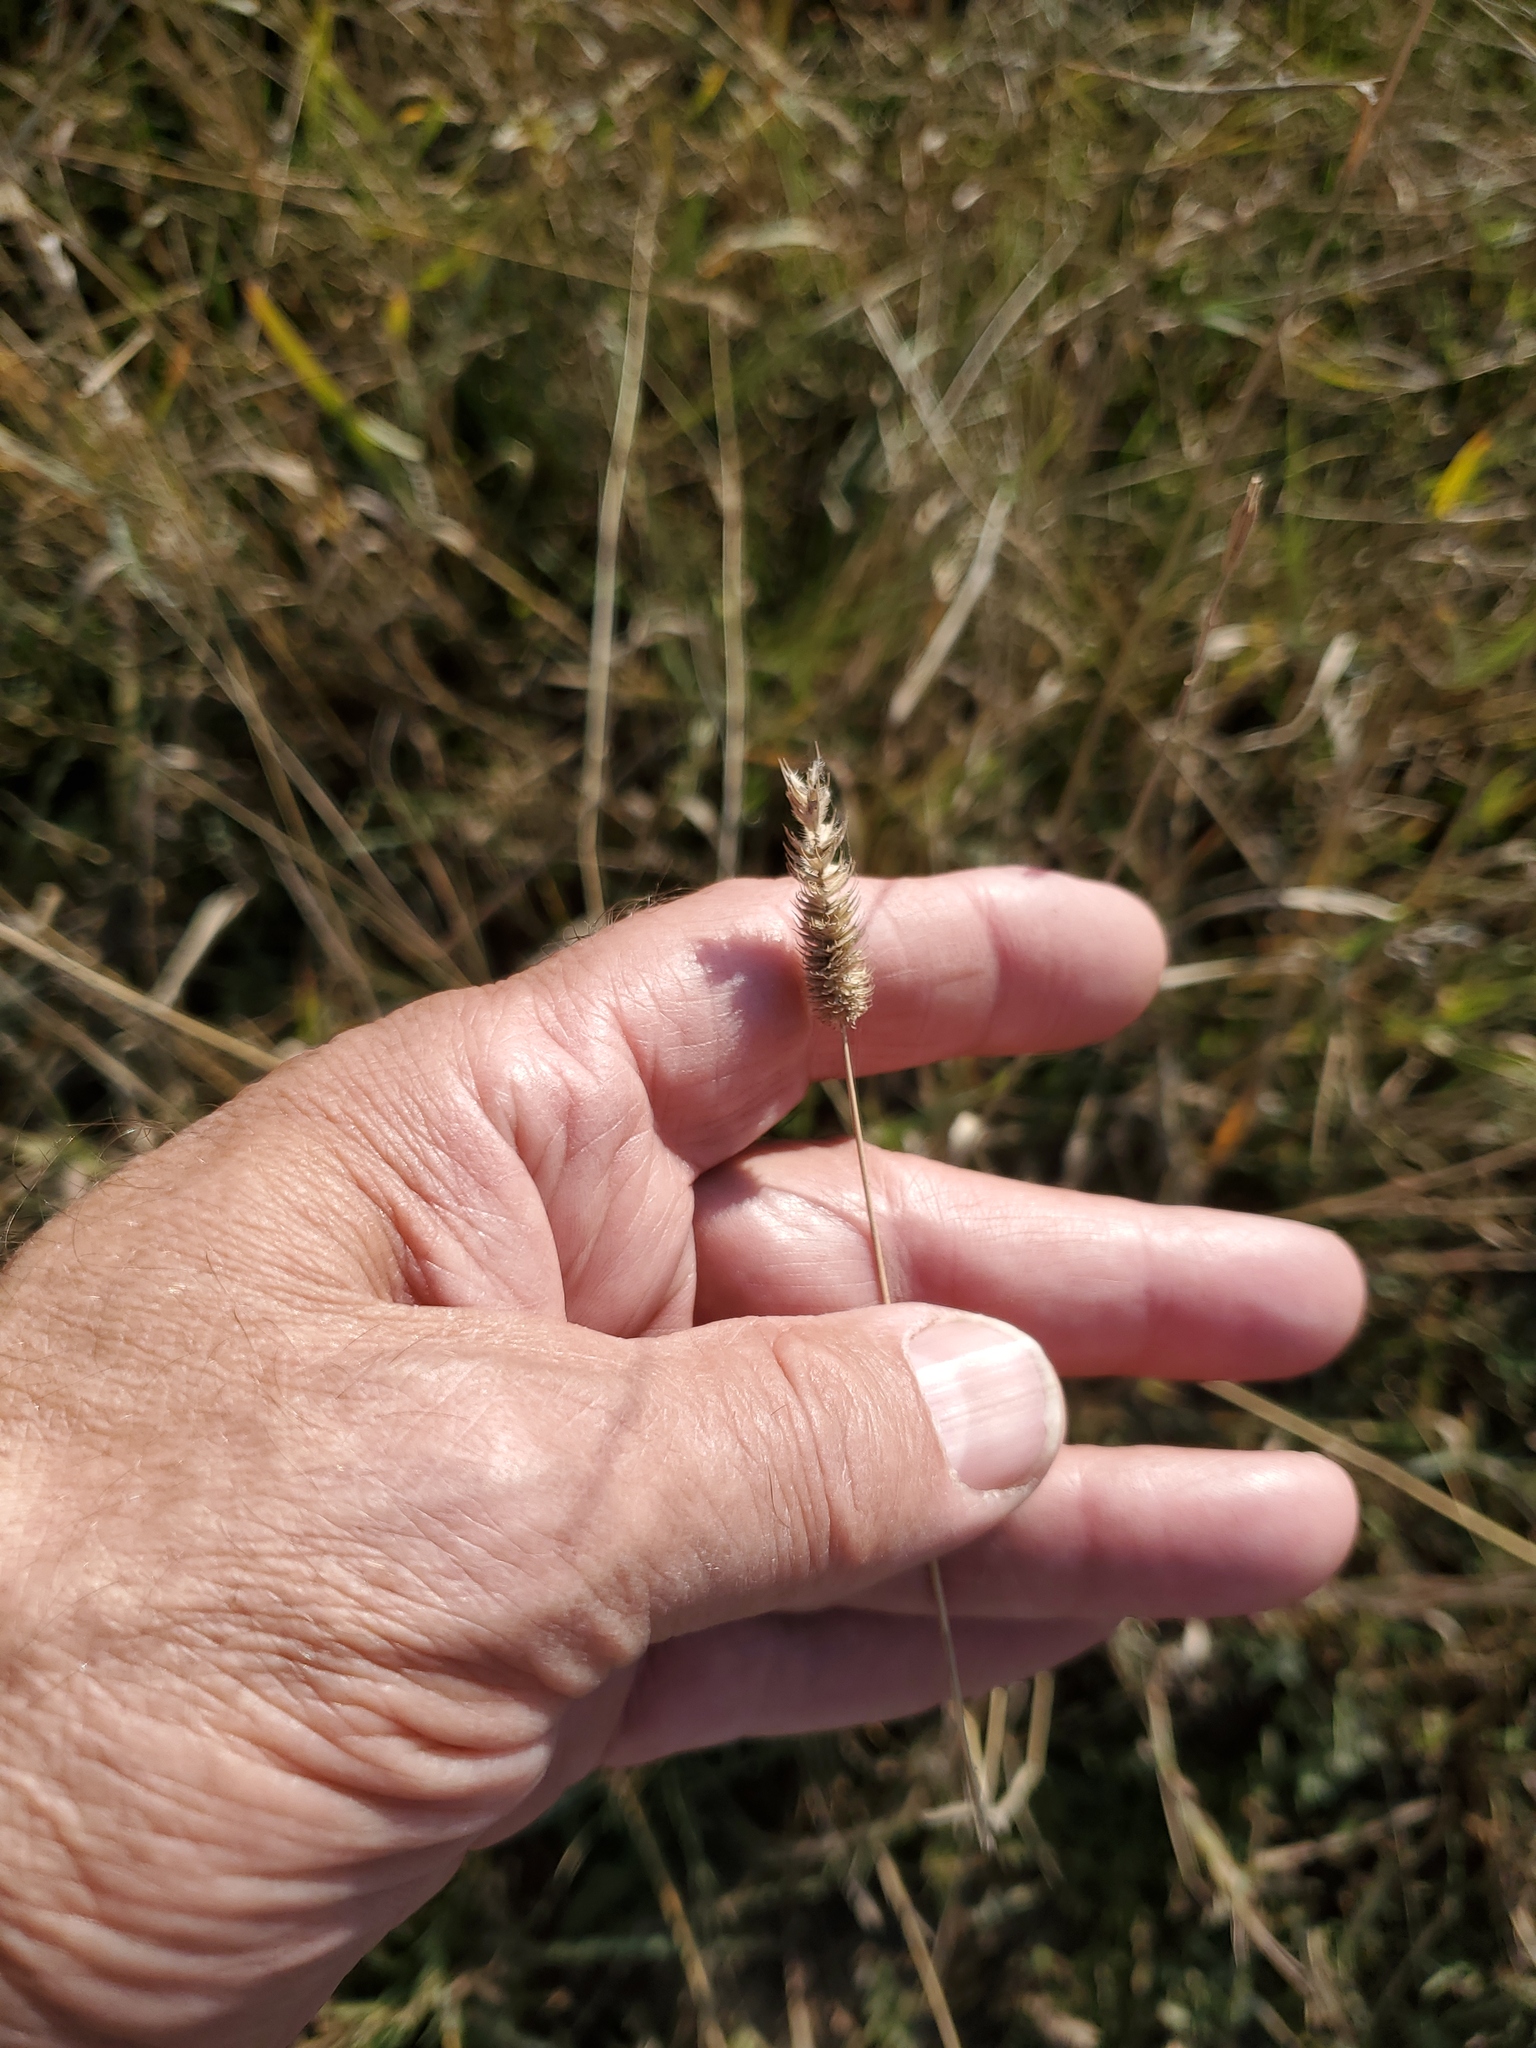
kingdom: Plantae
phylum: Tracheophyta
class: Liliopsida
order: Poales
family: Poaceae
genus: Phleum
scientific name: Phleum pratense
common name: Timothy grass
